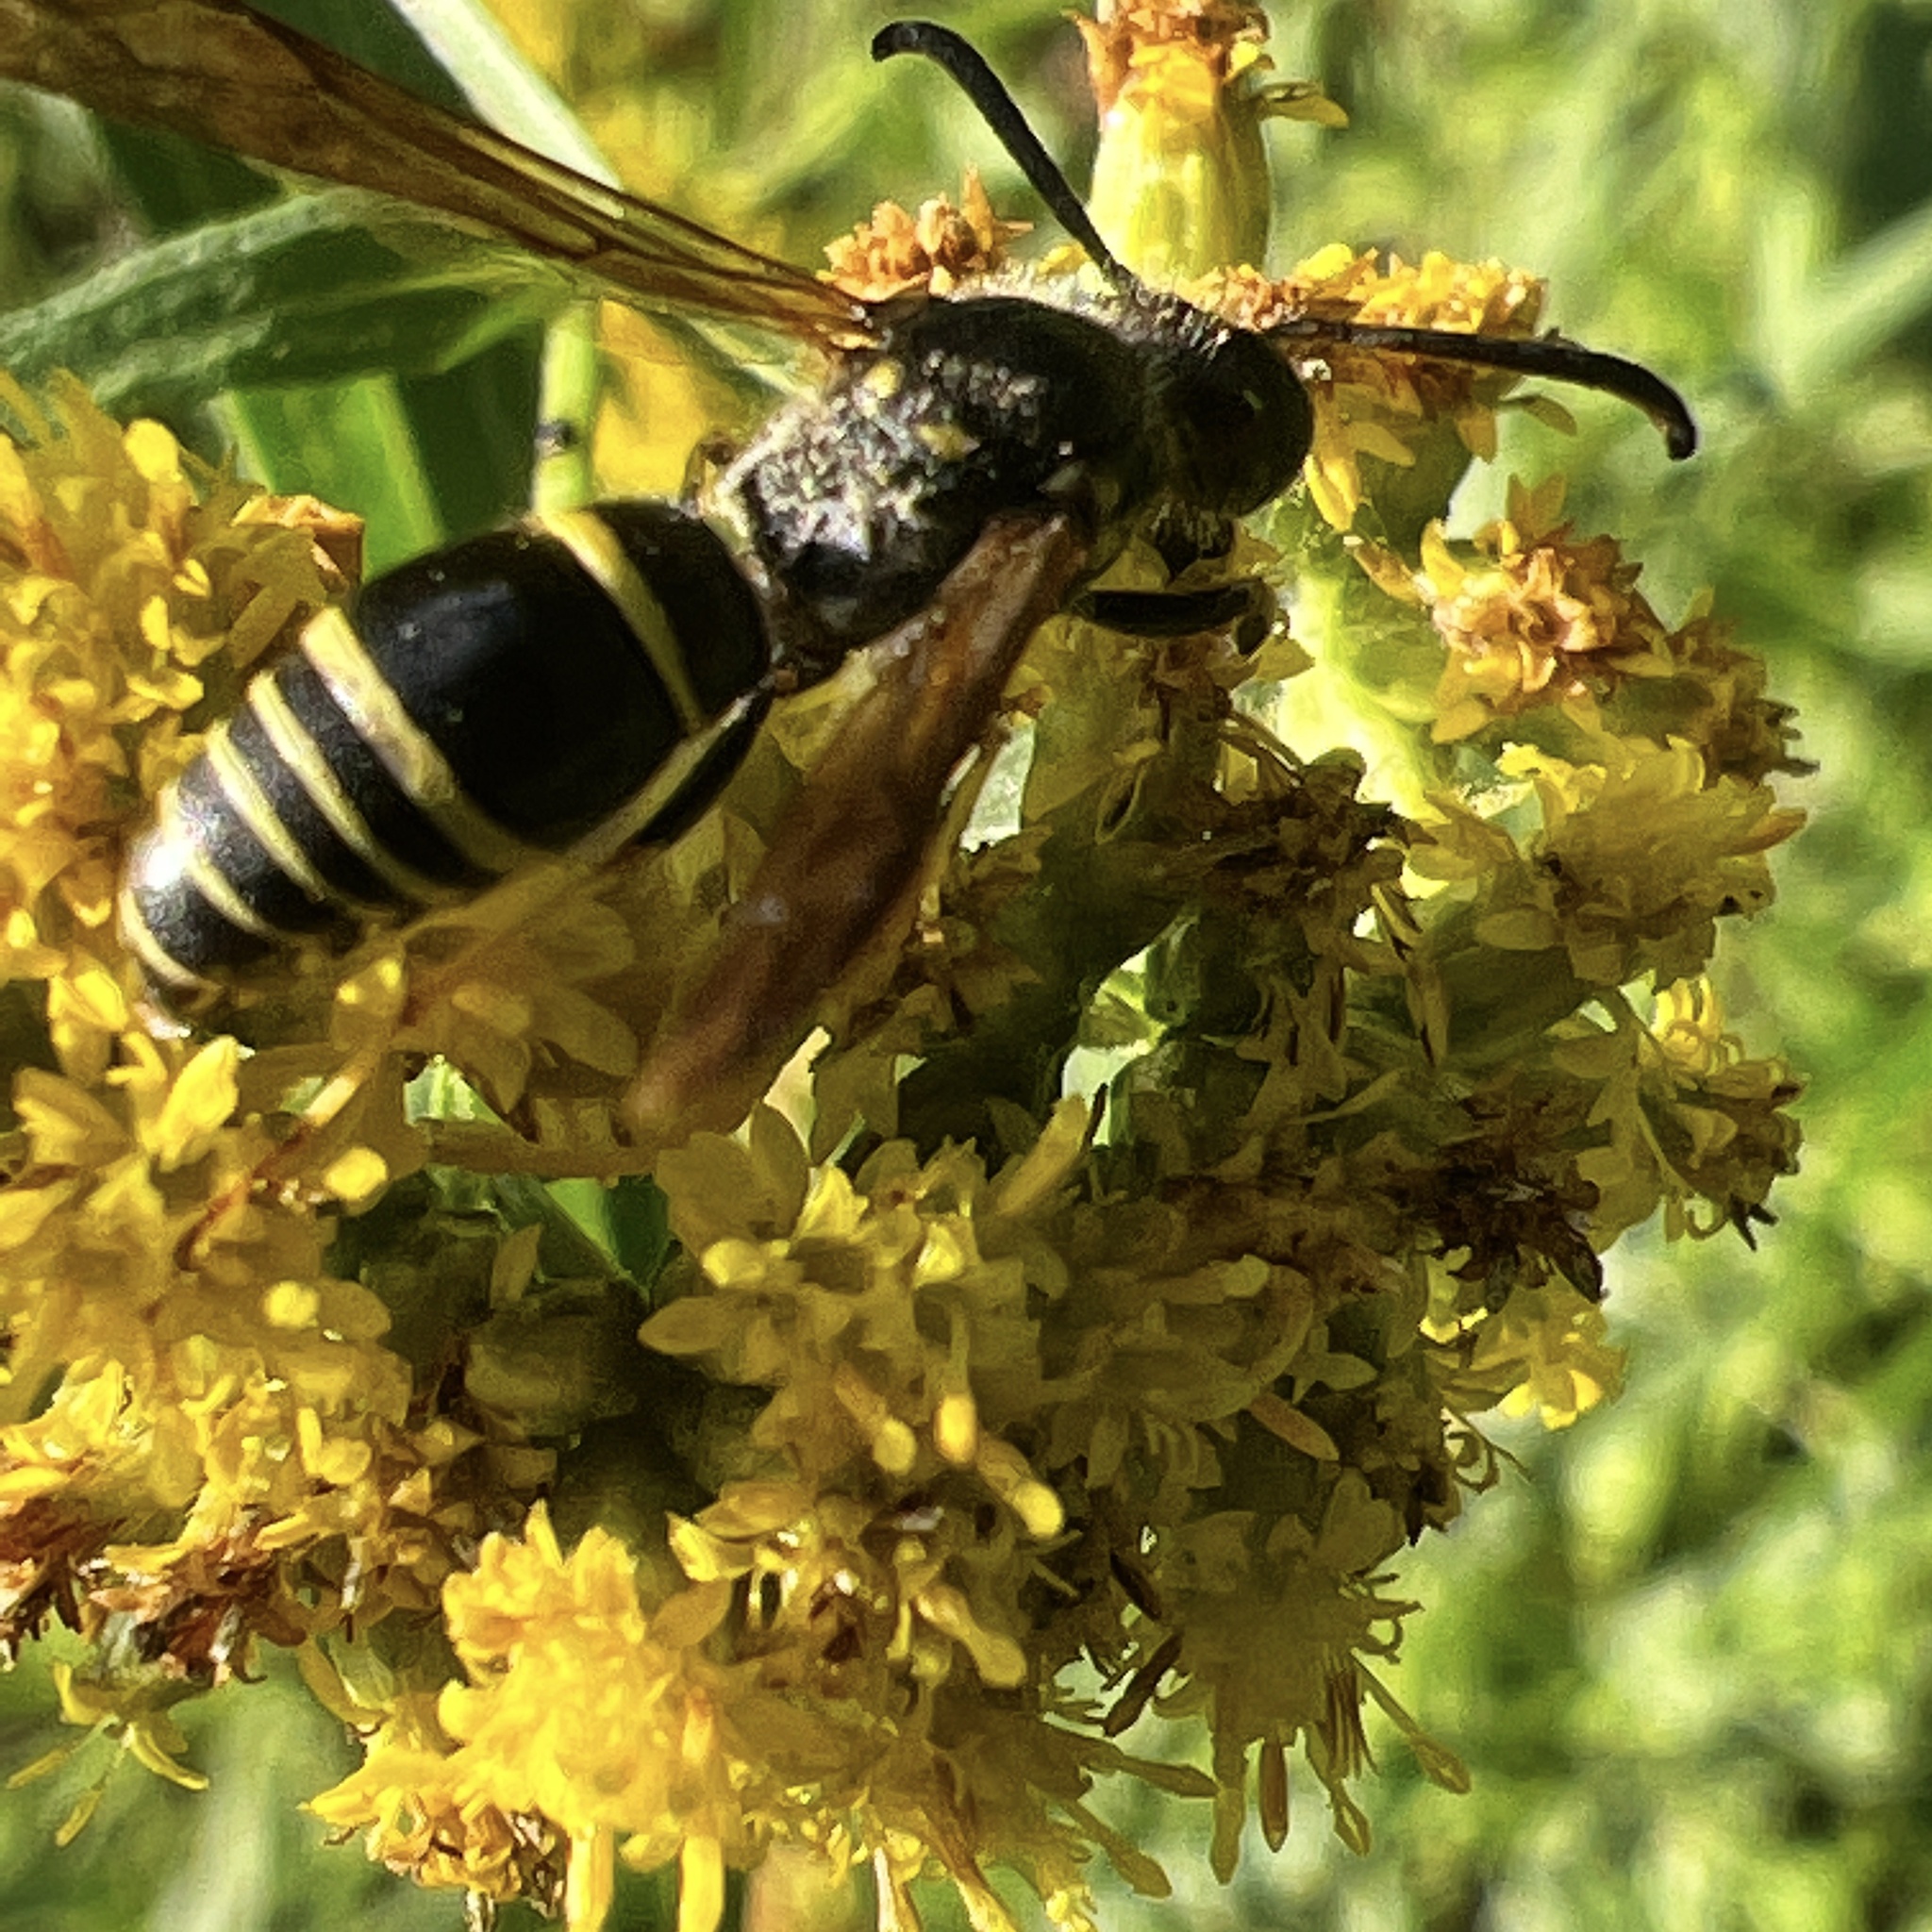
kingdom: Animalia
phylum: Arthropoda
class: Insecta
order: Hymenoptera
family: Vespidae
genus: Ancistrocerus
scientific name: Ancistrocerus
